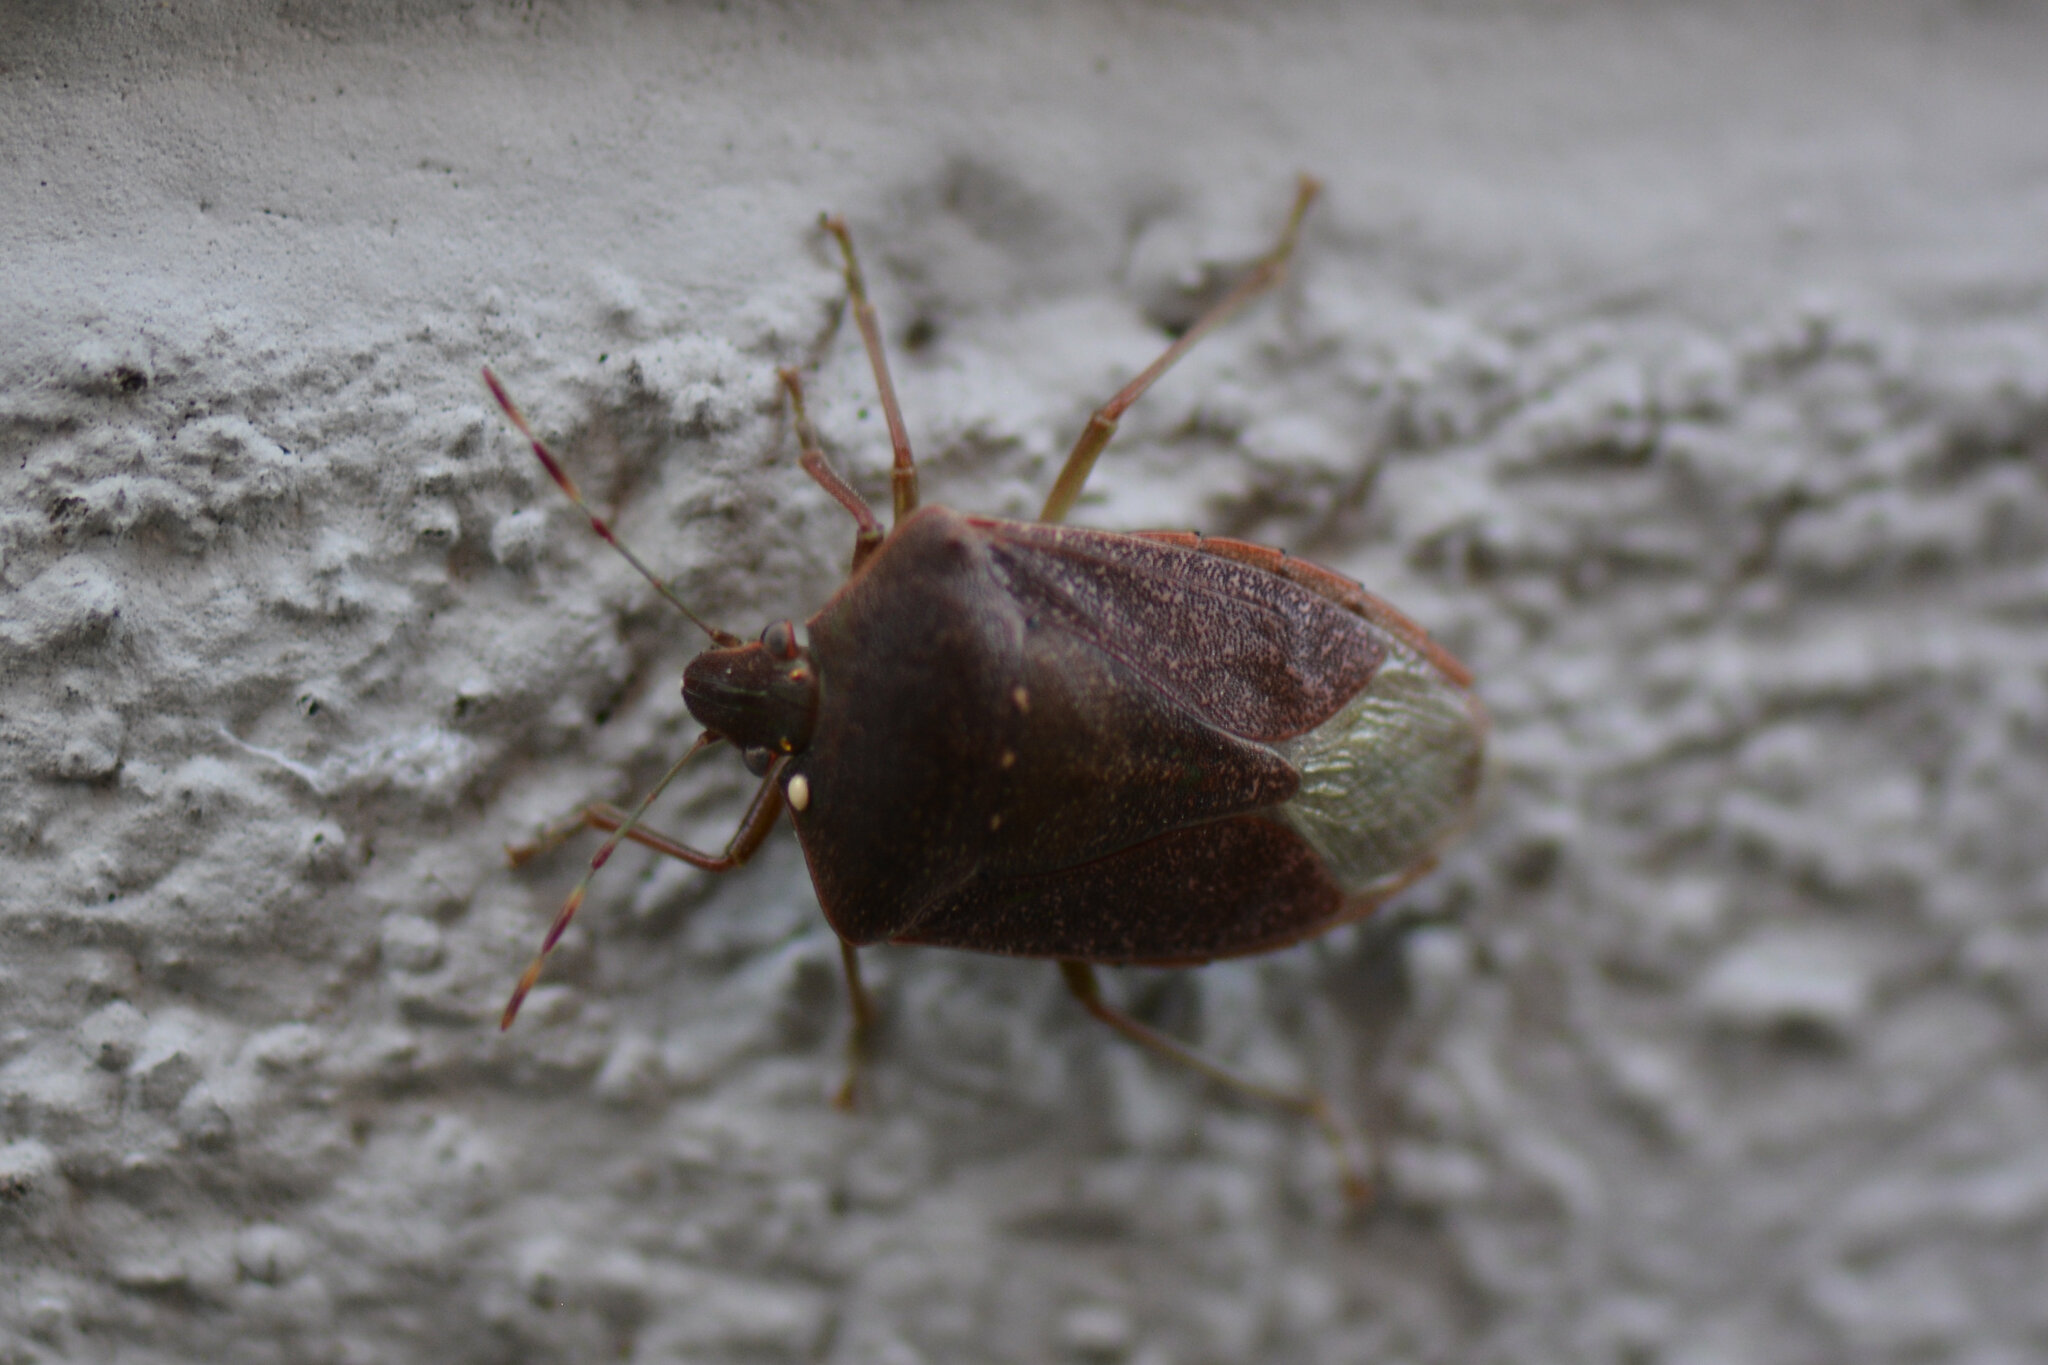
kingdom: Animalia
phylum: Arthropoda
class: Insecta
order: Hemiptera
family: Pentatomidae
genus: Nezara
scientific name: Nezara viridula
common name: Southern green stink bug
